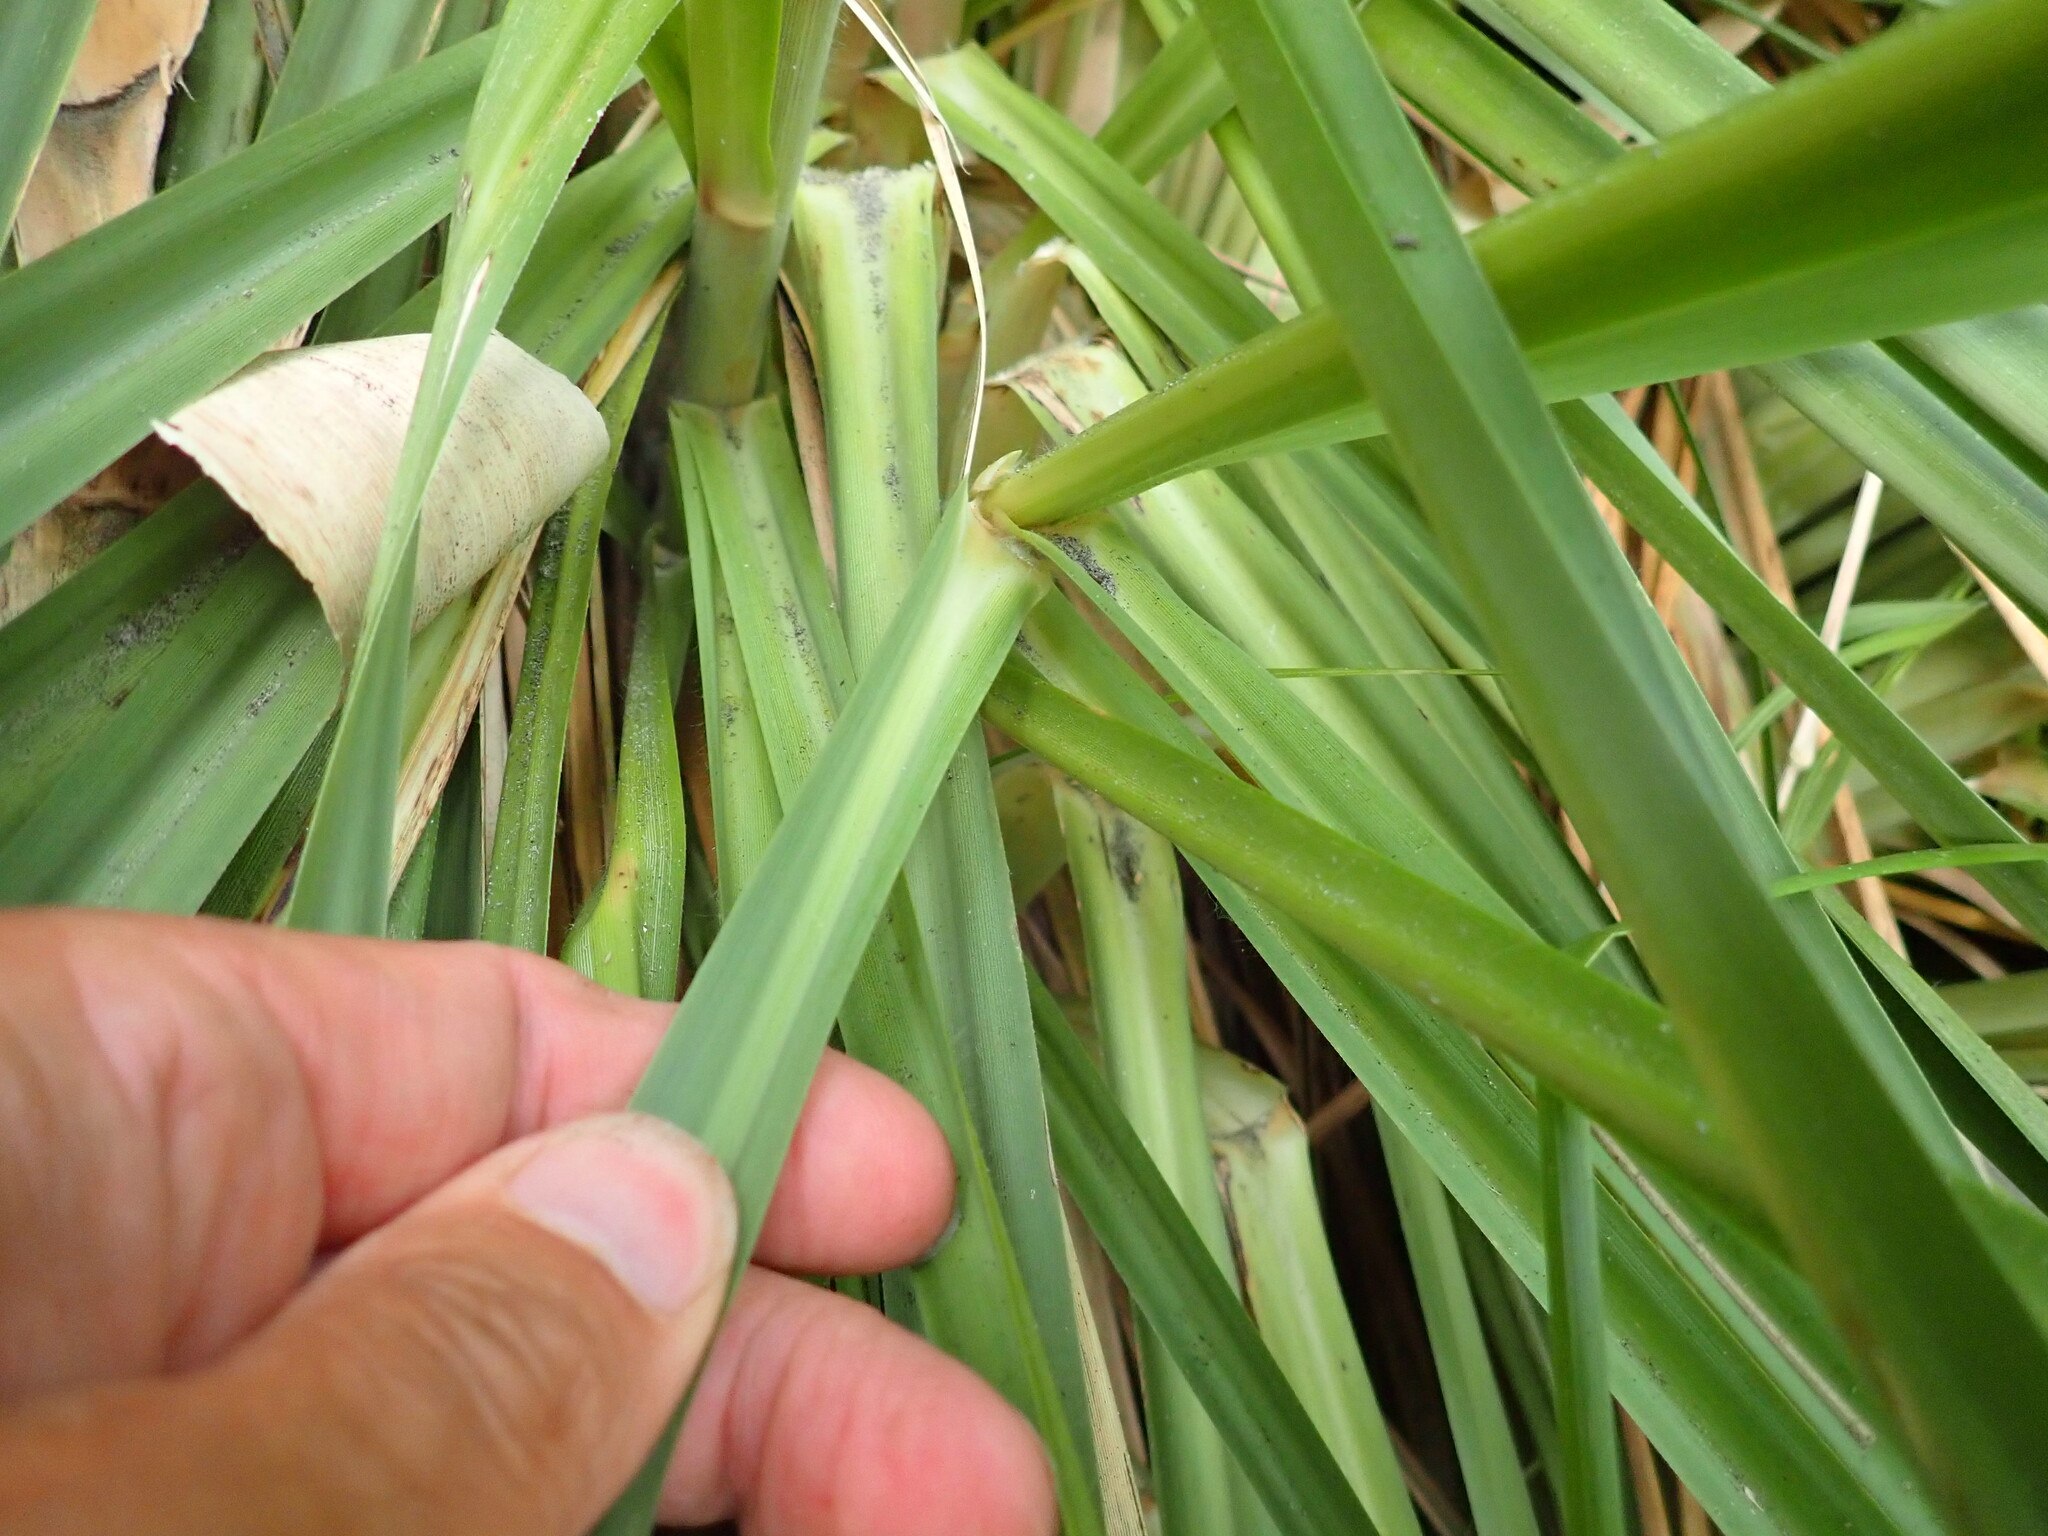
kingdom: Plantae
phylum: Tracheophyta
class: Liliopsida
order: Poales
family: Poaceae
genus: Cortaderia
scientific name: Cortaderia selloana
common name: Uruguayan pampas grass
